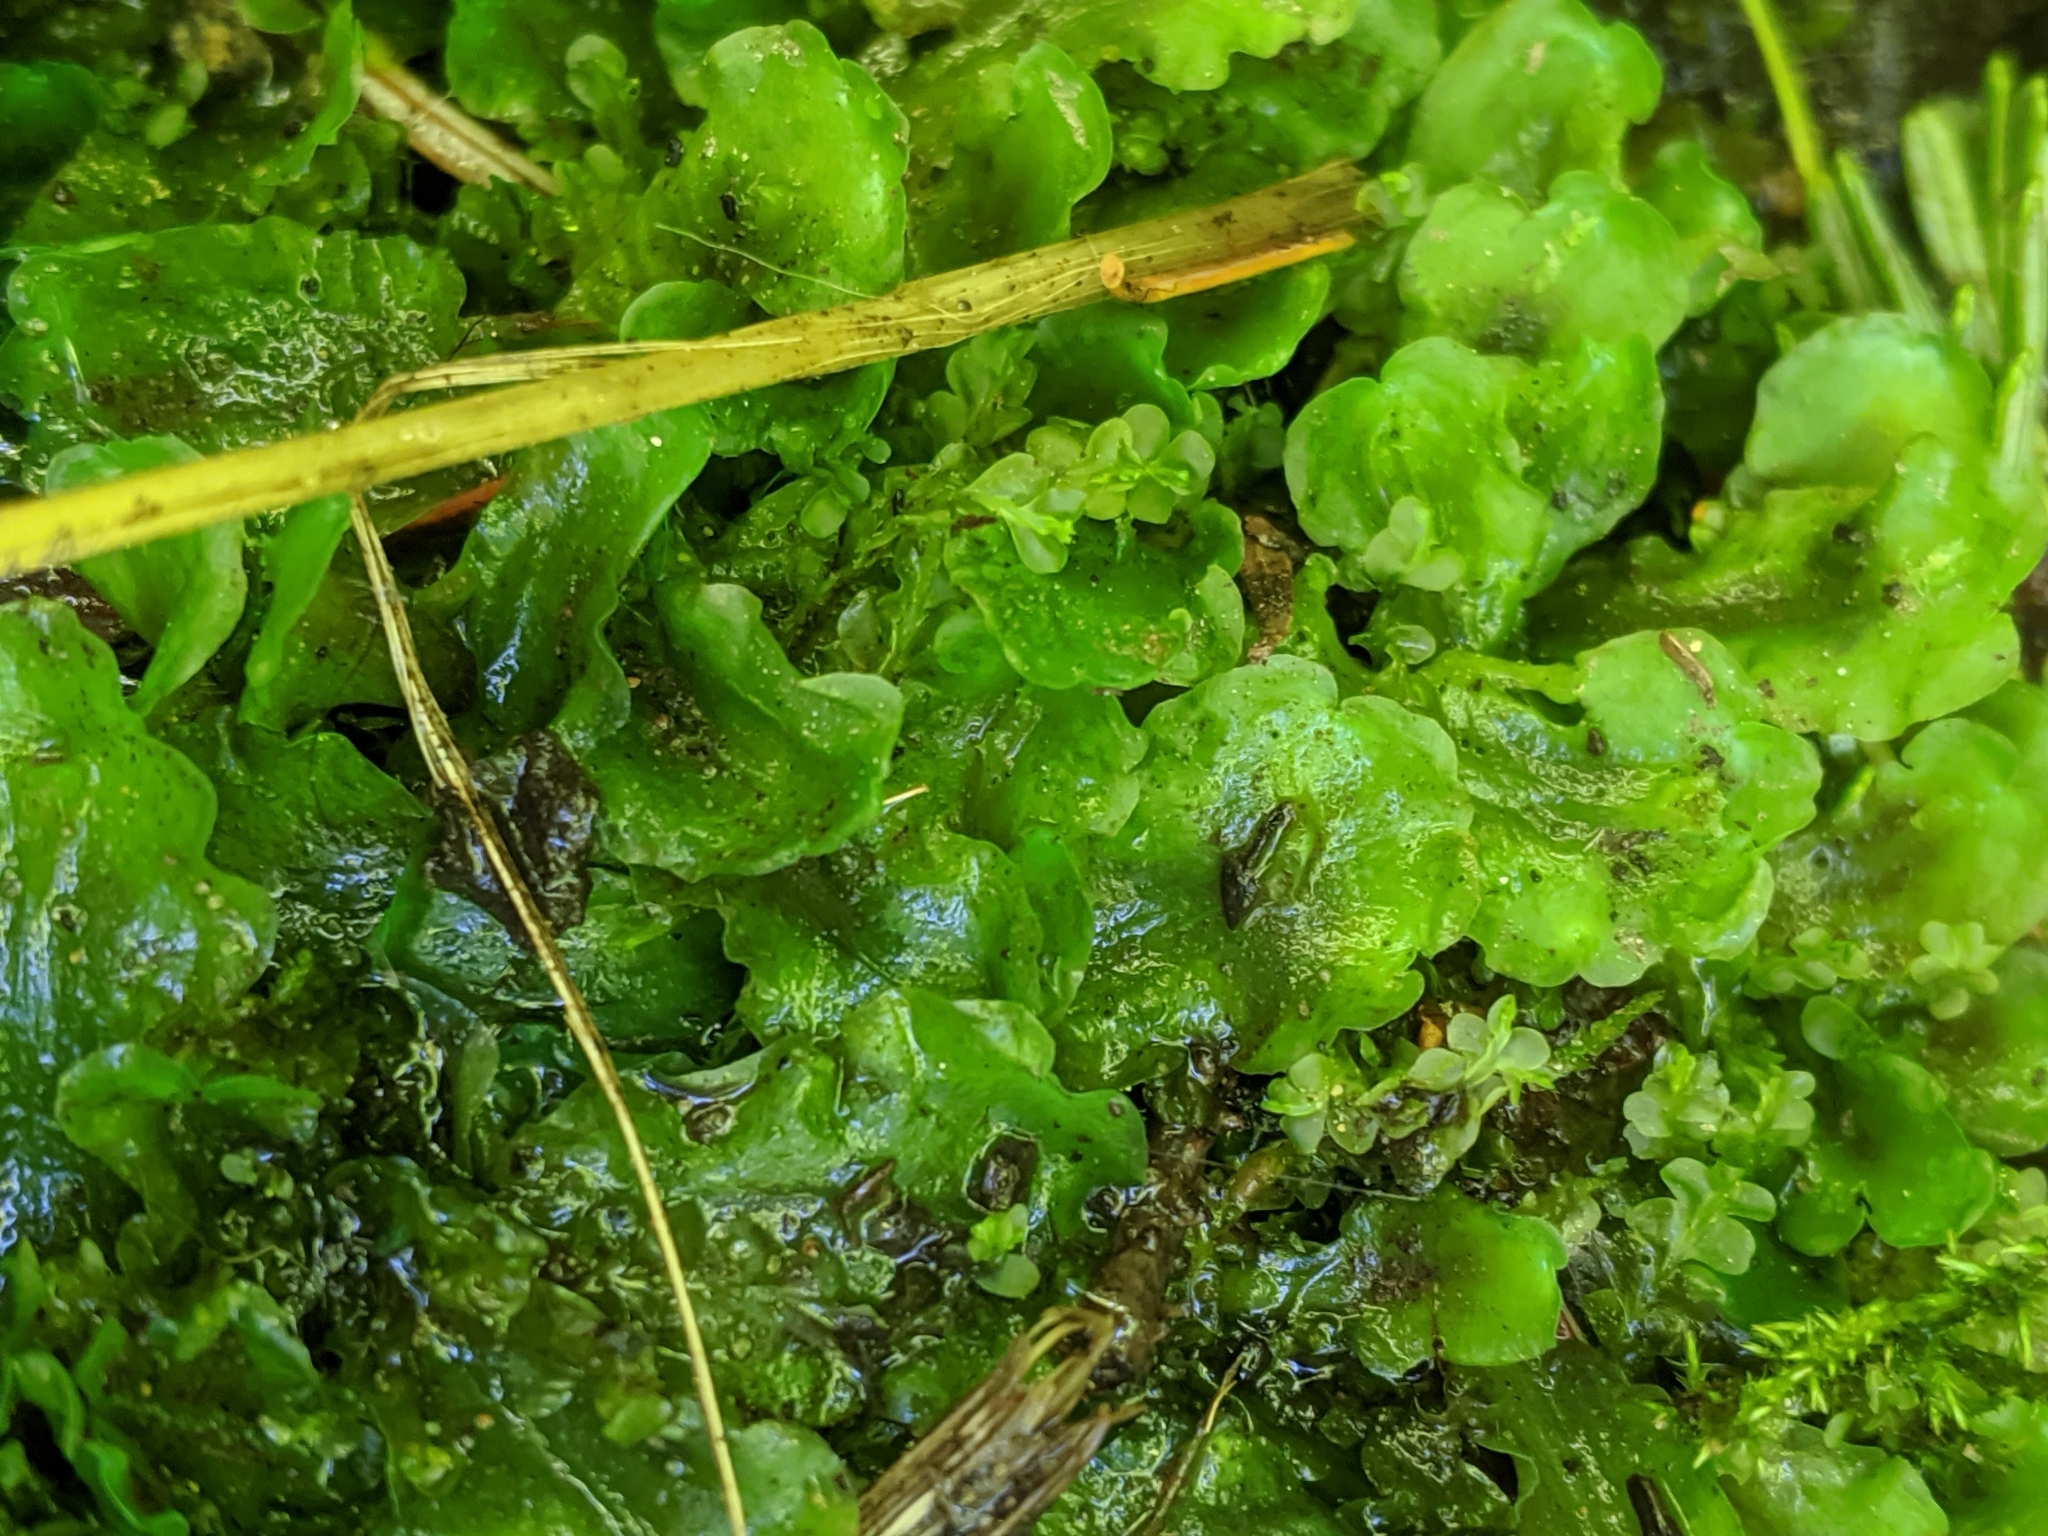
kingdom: Plantae
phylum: Marchantiophyta
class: Jungermanniopsida
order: Pelliales
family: Pelliaceae
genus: Pellia
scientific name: Pellia neesiana
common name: Nees  pellia
